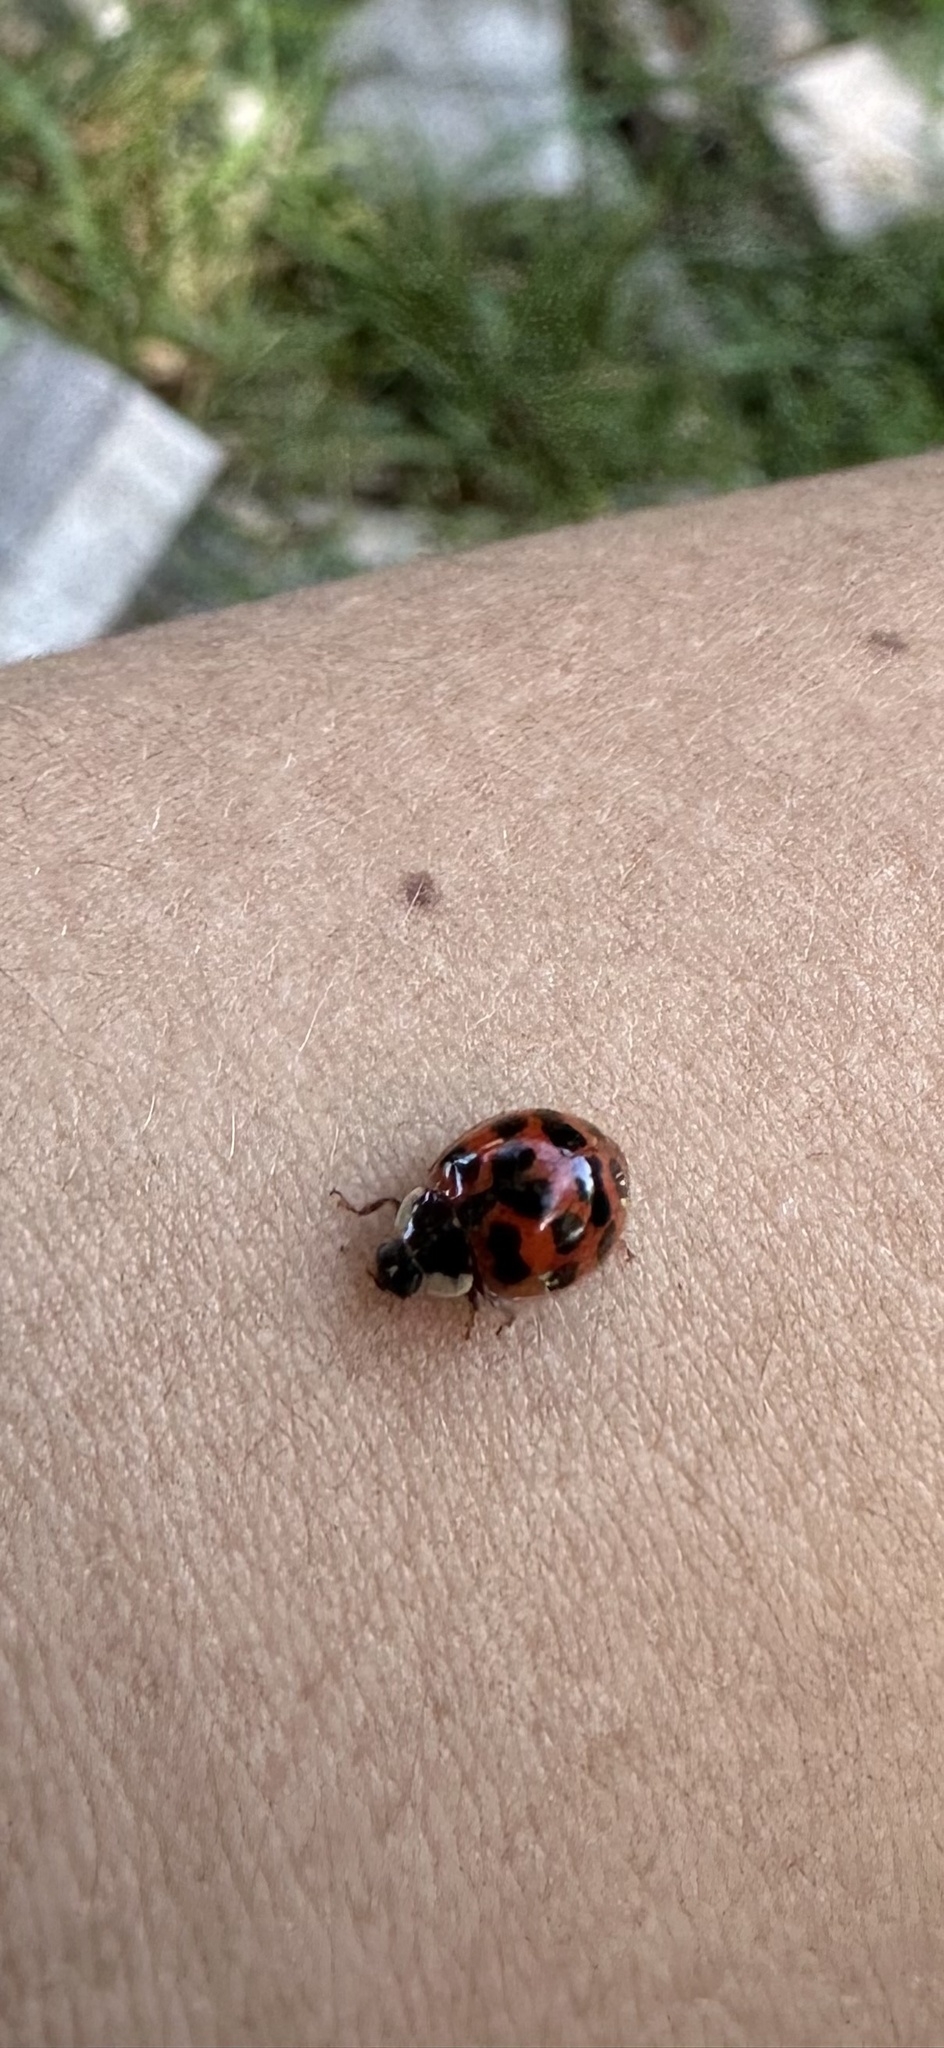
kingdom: Animalia
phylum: Arthropoda
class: Insecta
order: Coleoptera
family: Coccinellidae
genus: Harmonia
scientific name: Harmonia axyridis
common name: Harlequin ladybird
